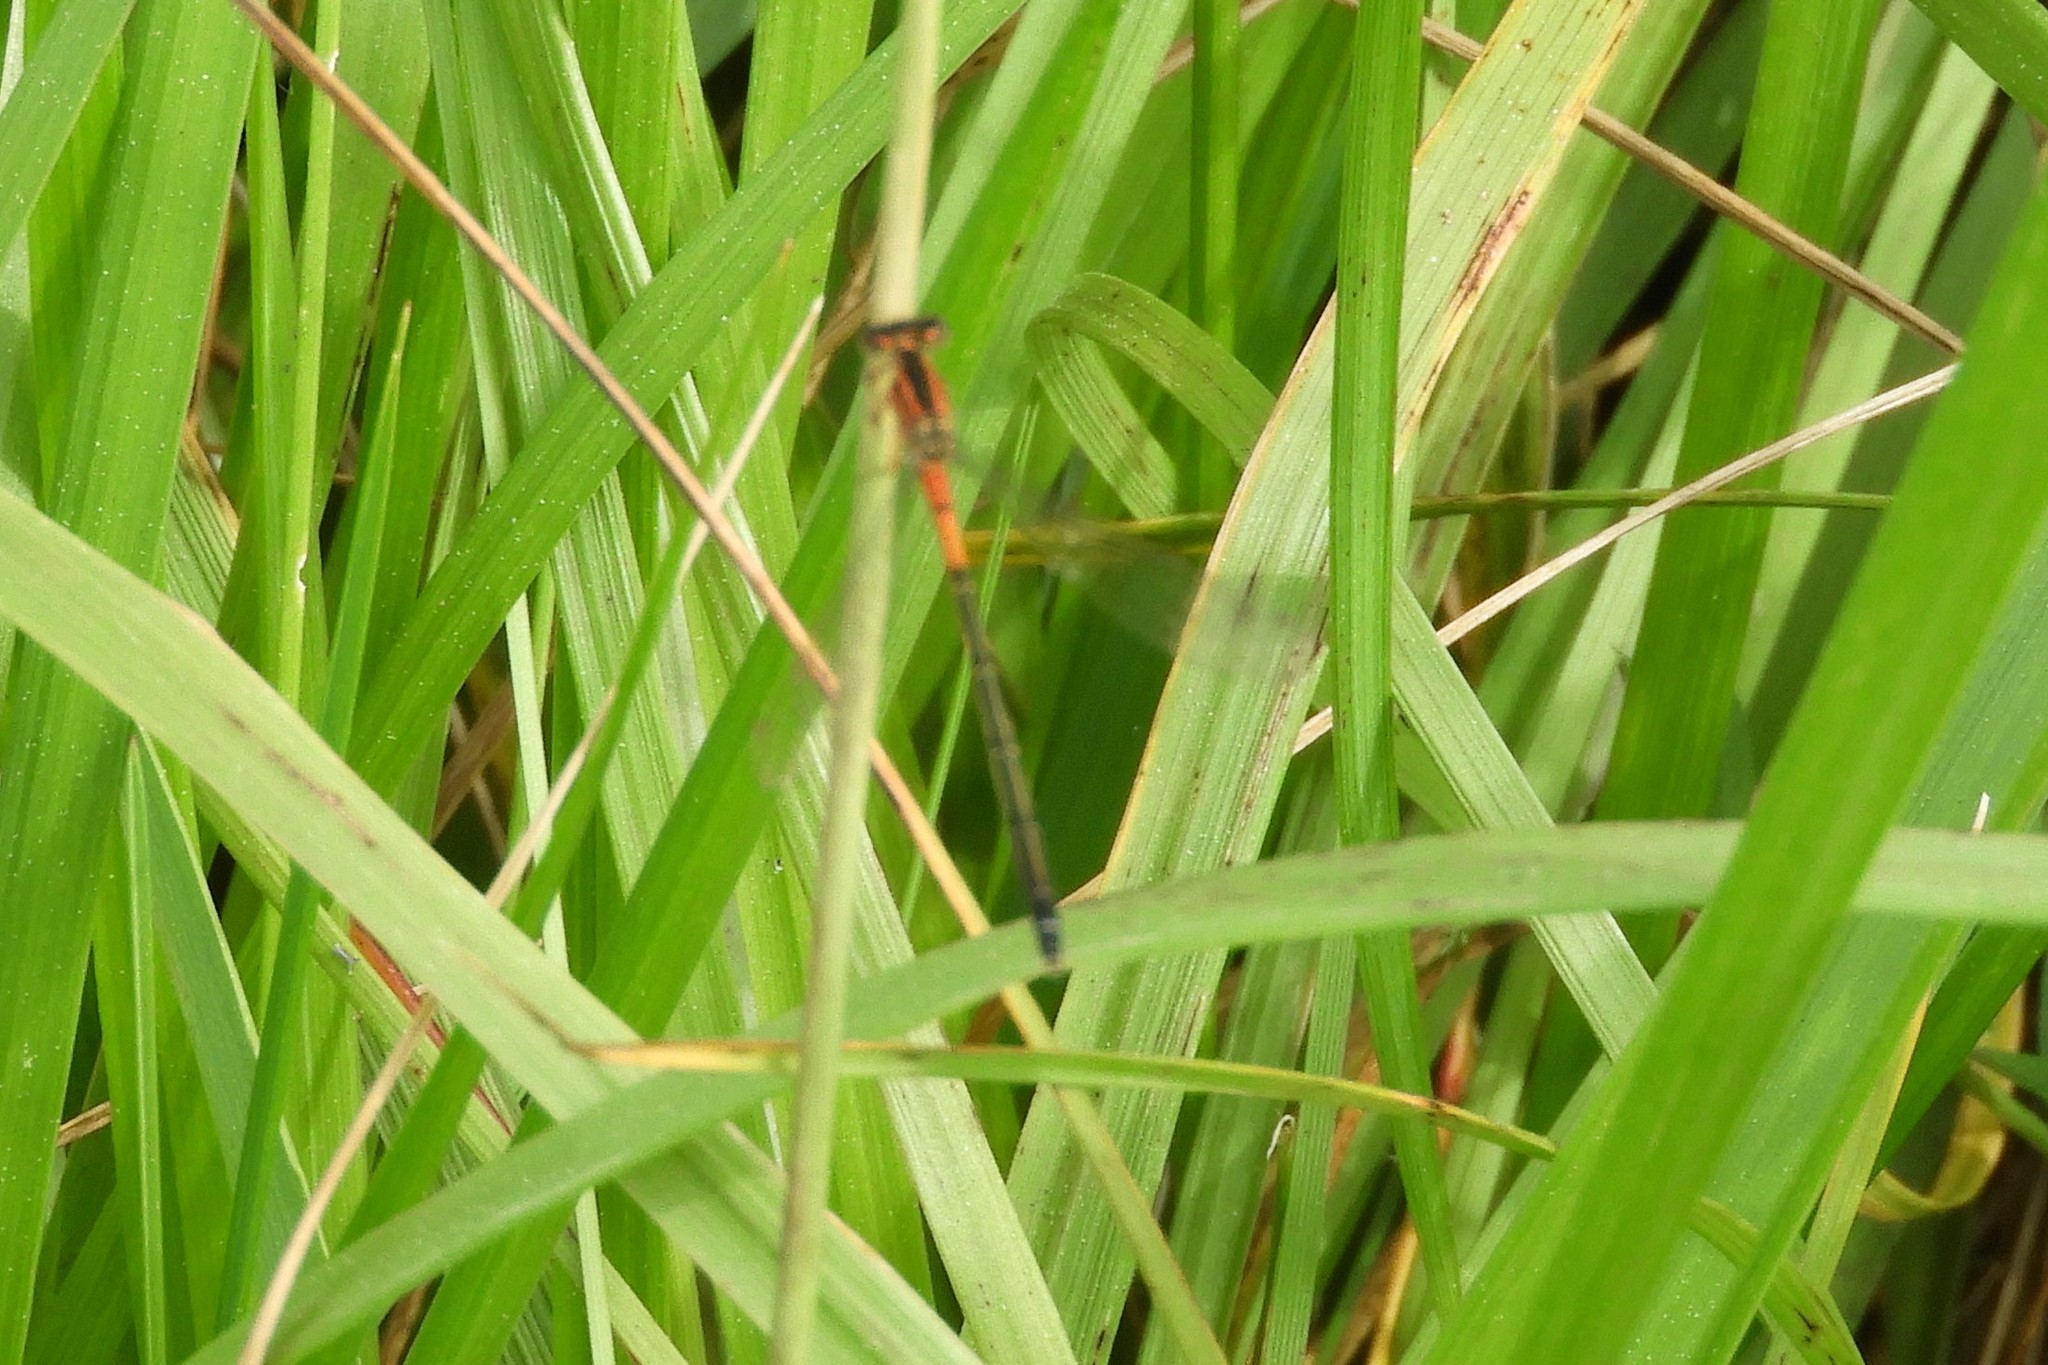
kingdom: Animalia
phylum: Arthropoda
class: Insecta
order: Odonata
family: Coenagrionidae
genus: Ischnura
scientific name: Ischnura verticalis
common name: Eastern forktail
